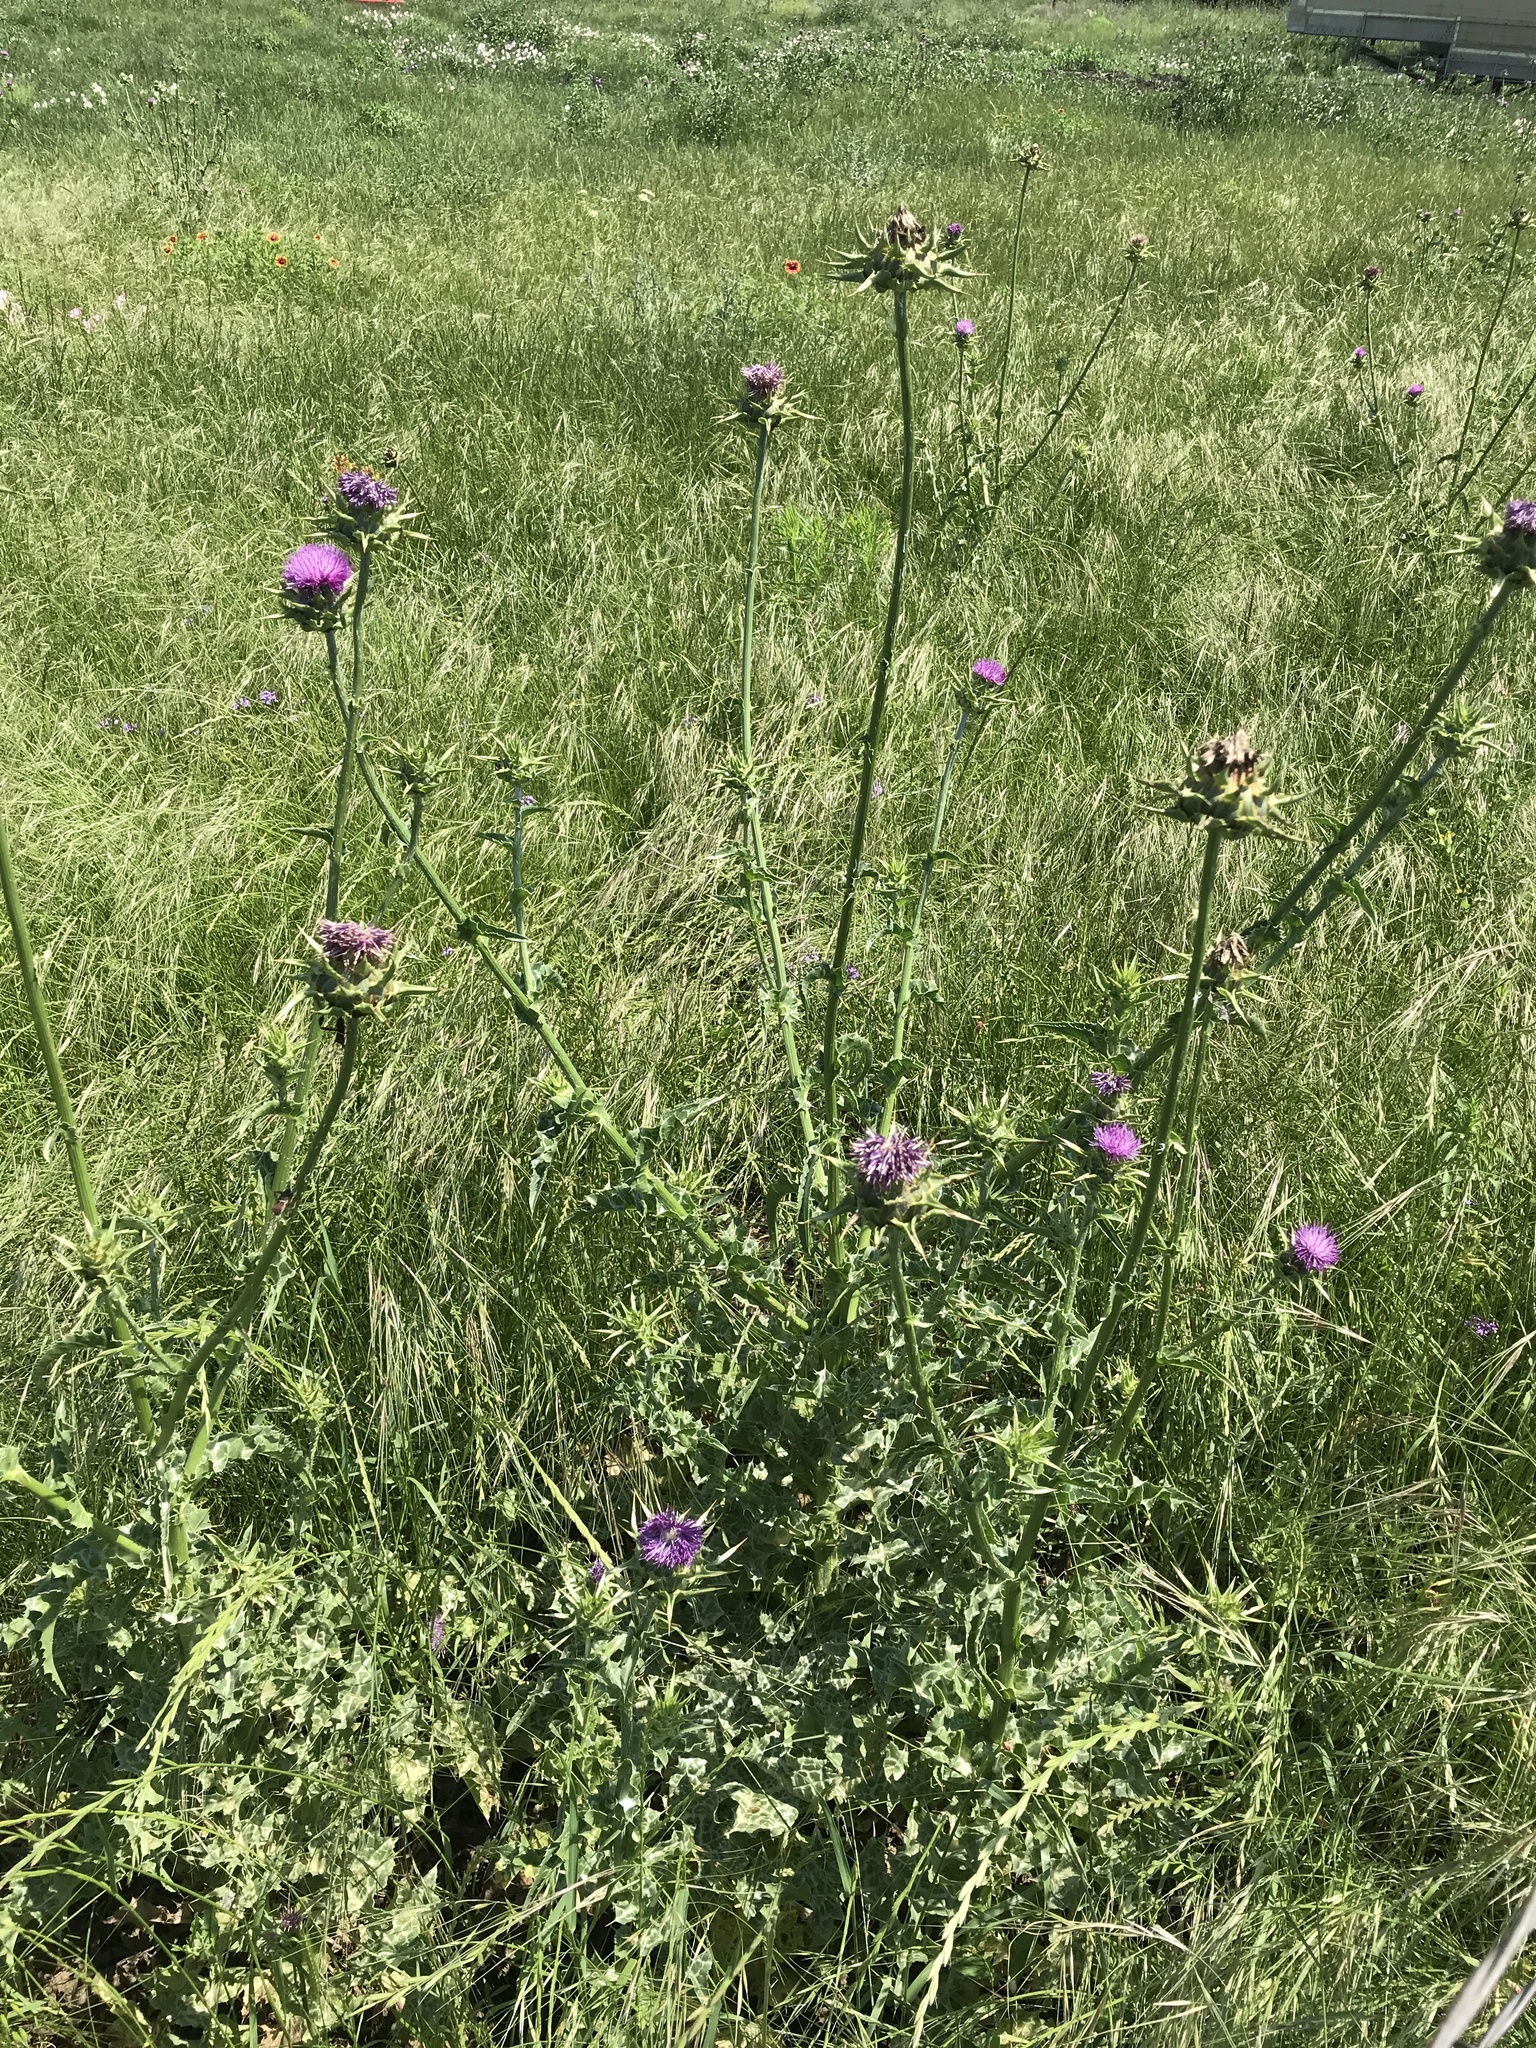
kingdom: Plantae
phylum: Tracheophyta
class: Magnoliopsida
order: Asterales
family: Asteraceae
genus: Silybum
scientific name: Silybum marianum
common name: Milk thistle
